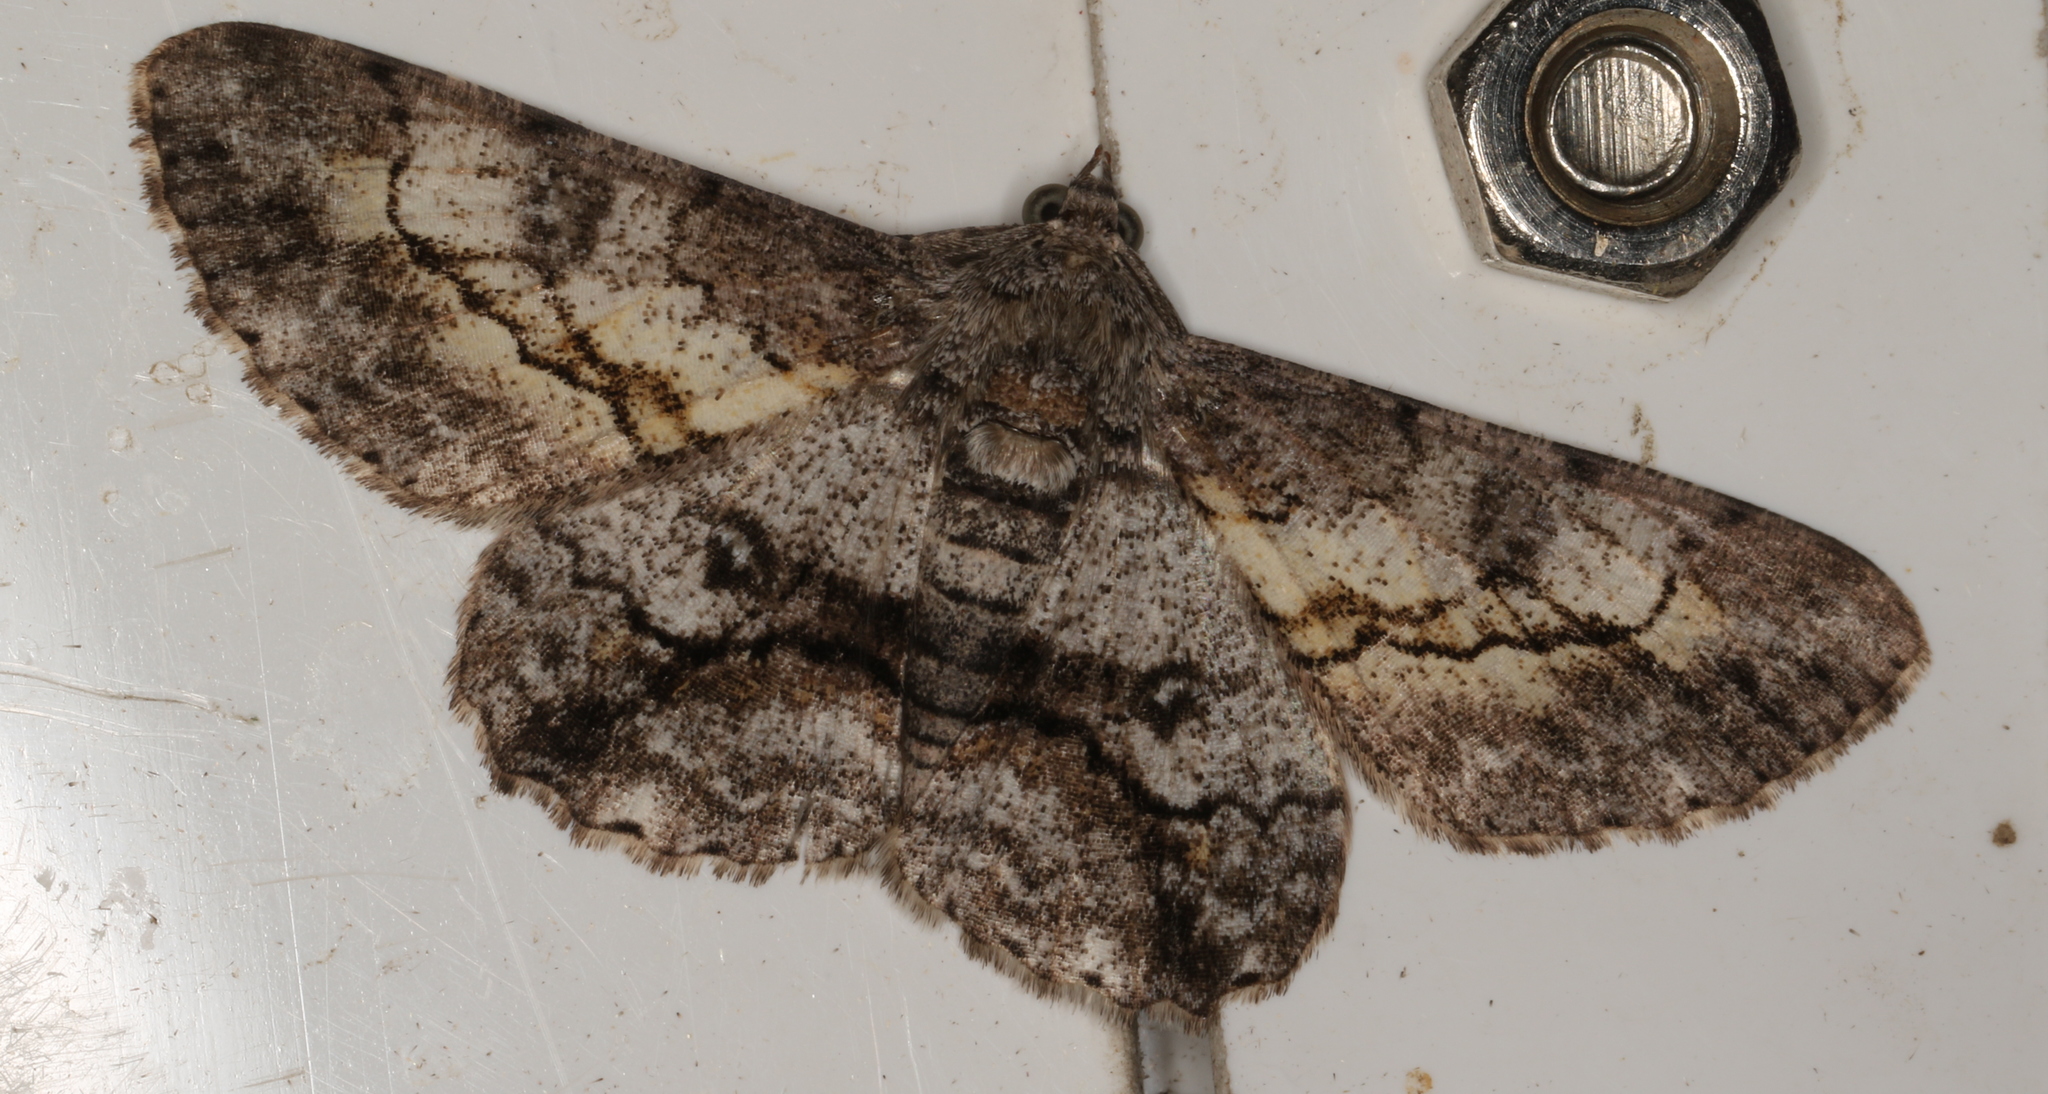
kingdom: Animalia
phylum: Arthropoda
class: Insecta
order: Lepidoptera
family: Geometridae
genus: Cleora
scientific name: Cleora injectaria
